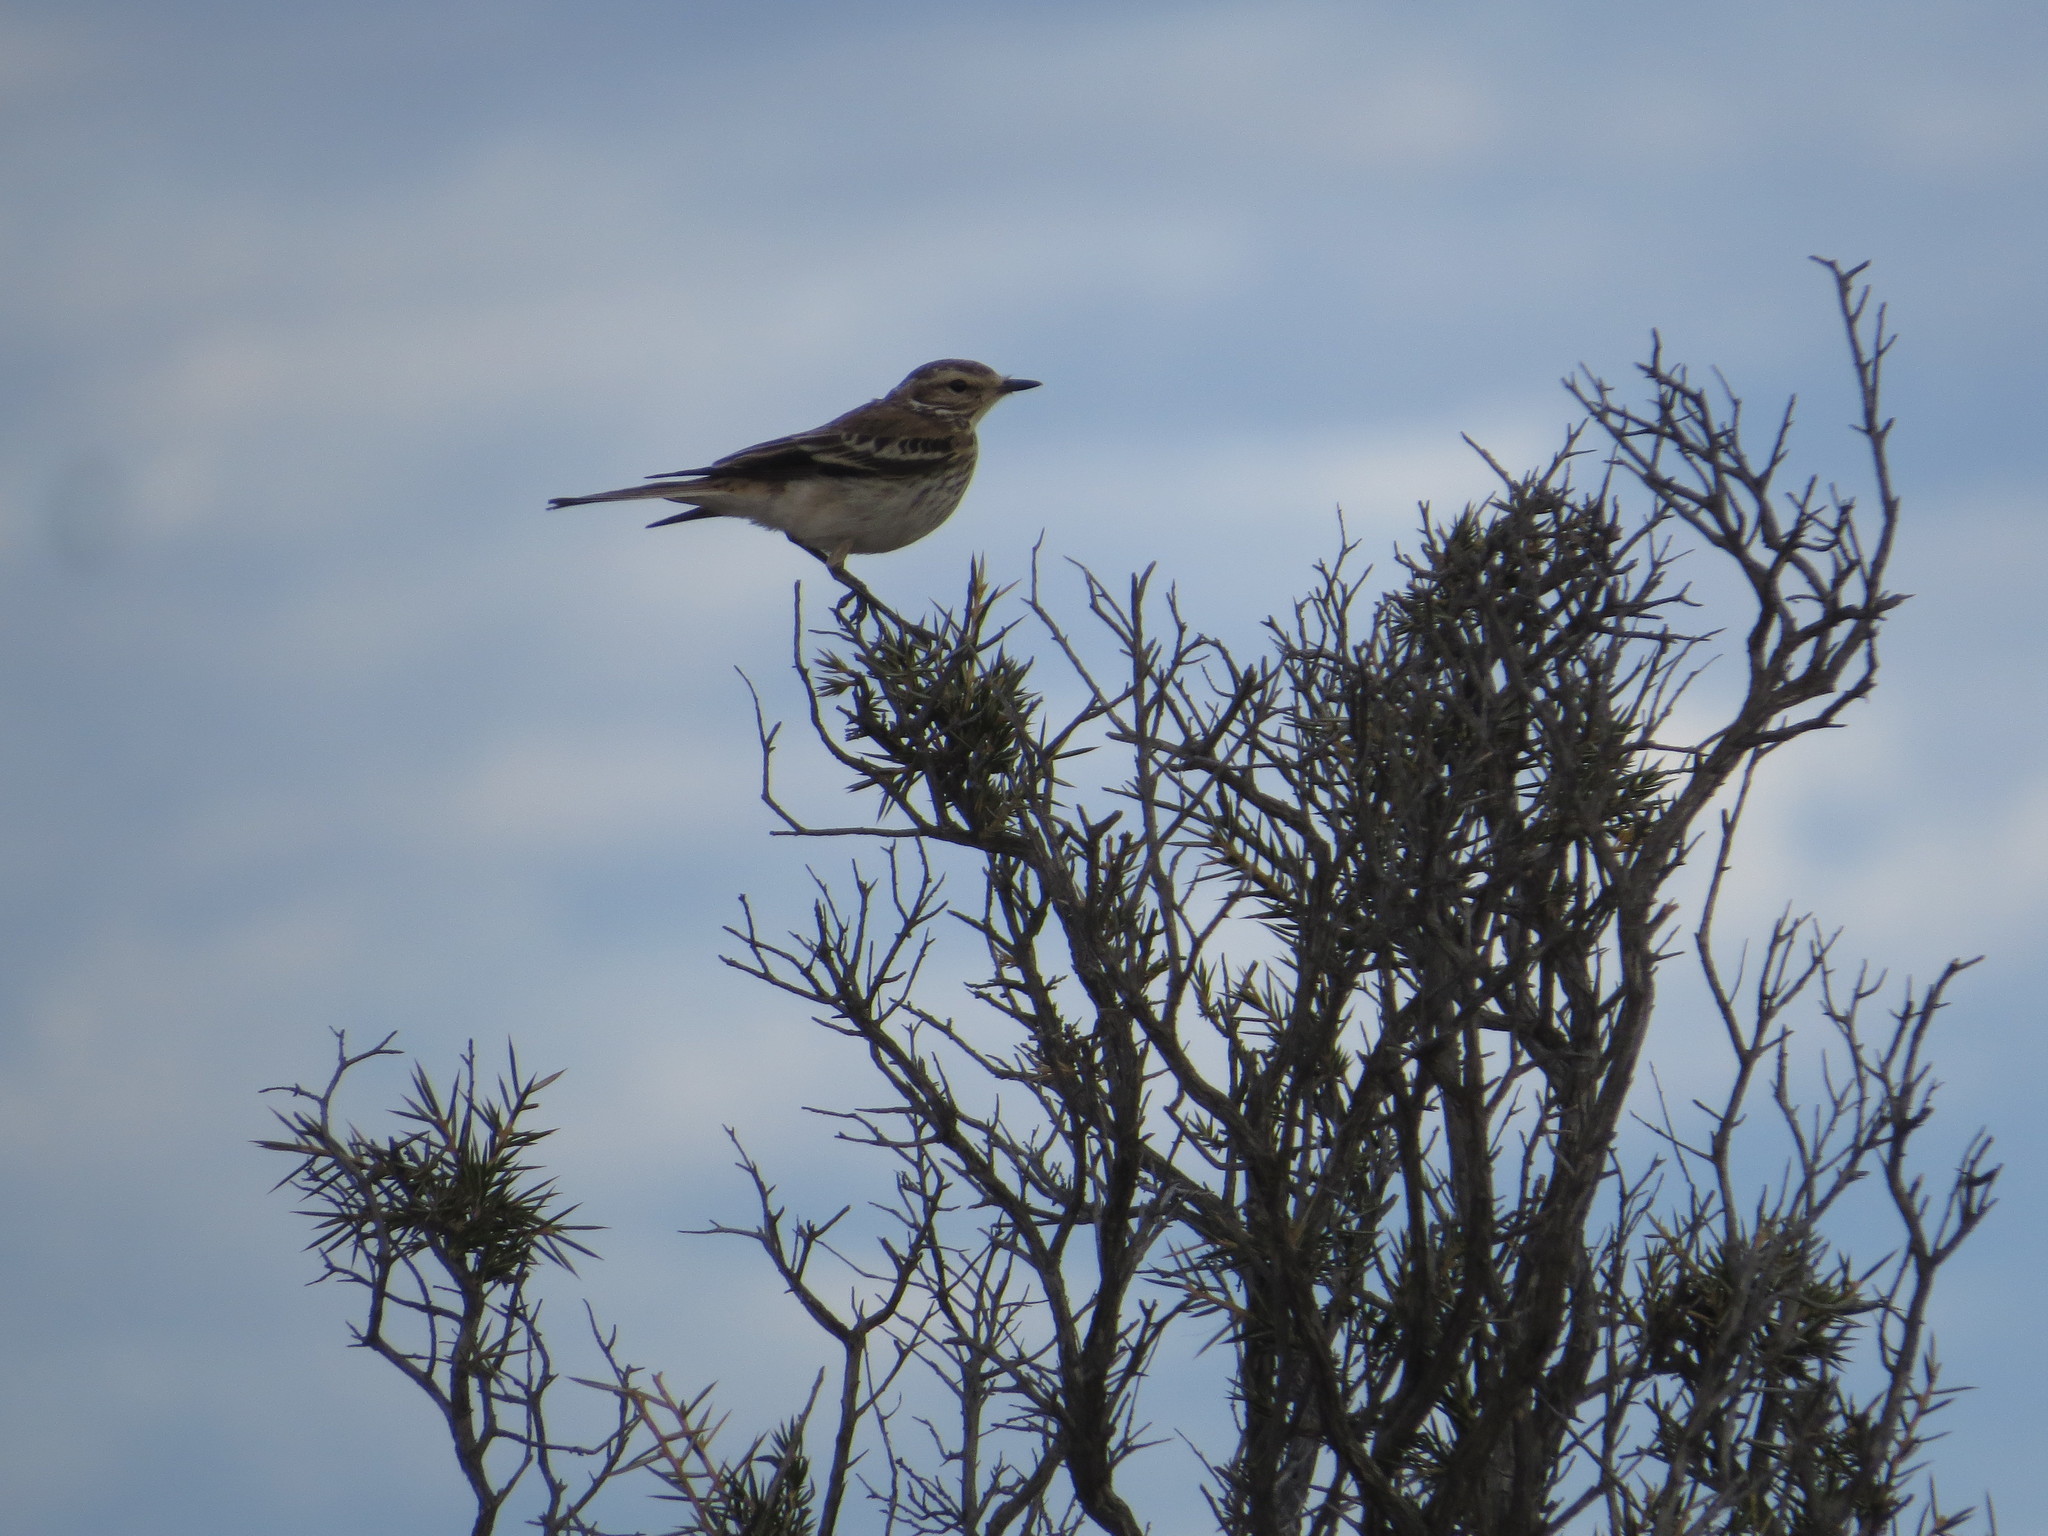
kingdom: Animalia
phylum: Chordata
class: Aves
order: Passeriformes
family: Tyrannidae
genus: Xolmis
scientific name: Xolmis rubetra
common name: Rusty-backed monjita
